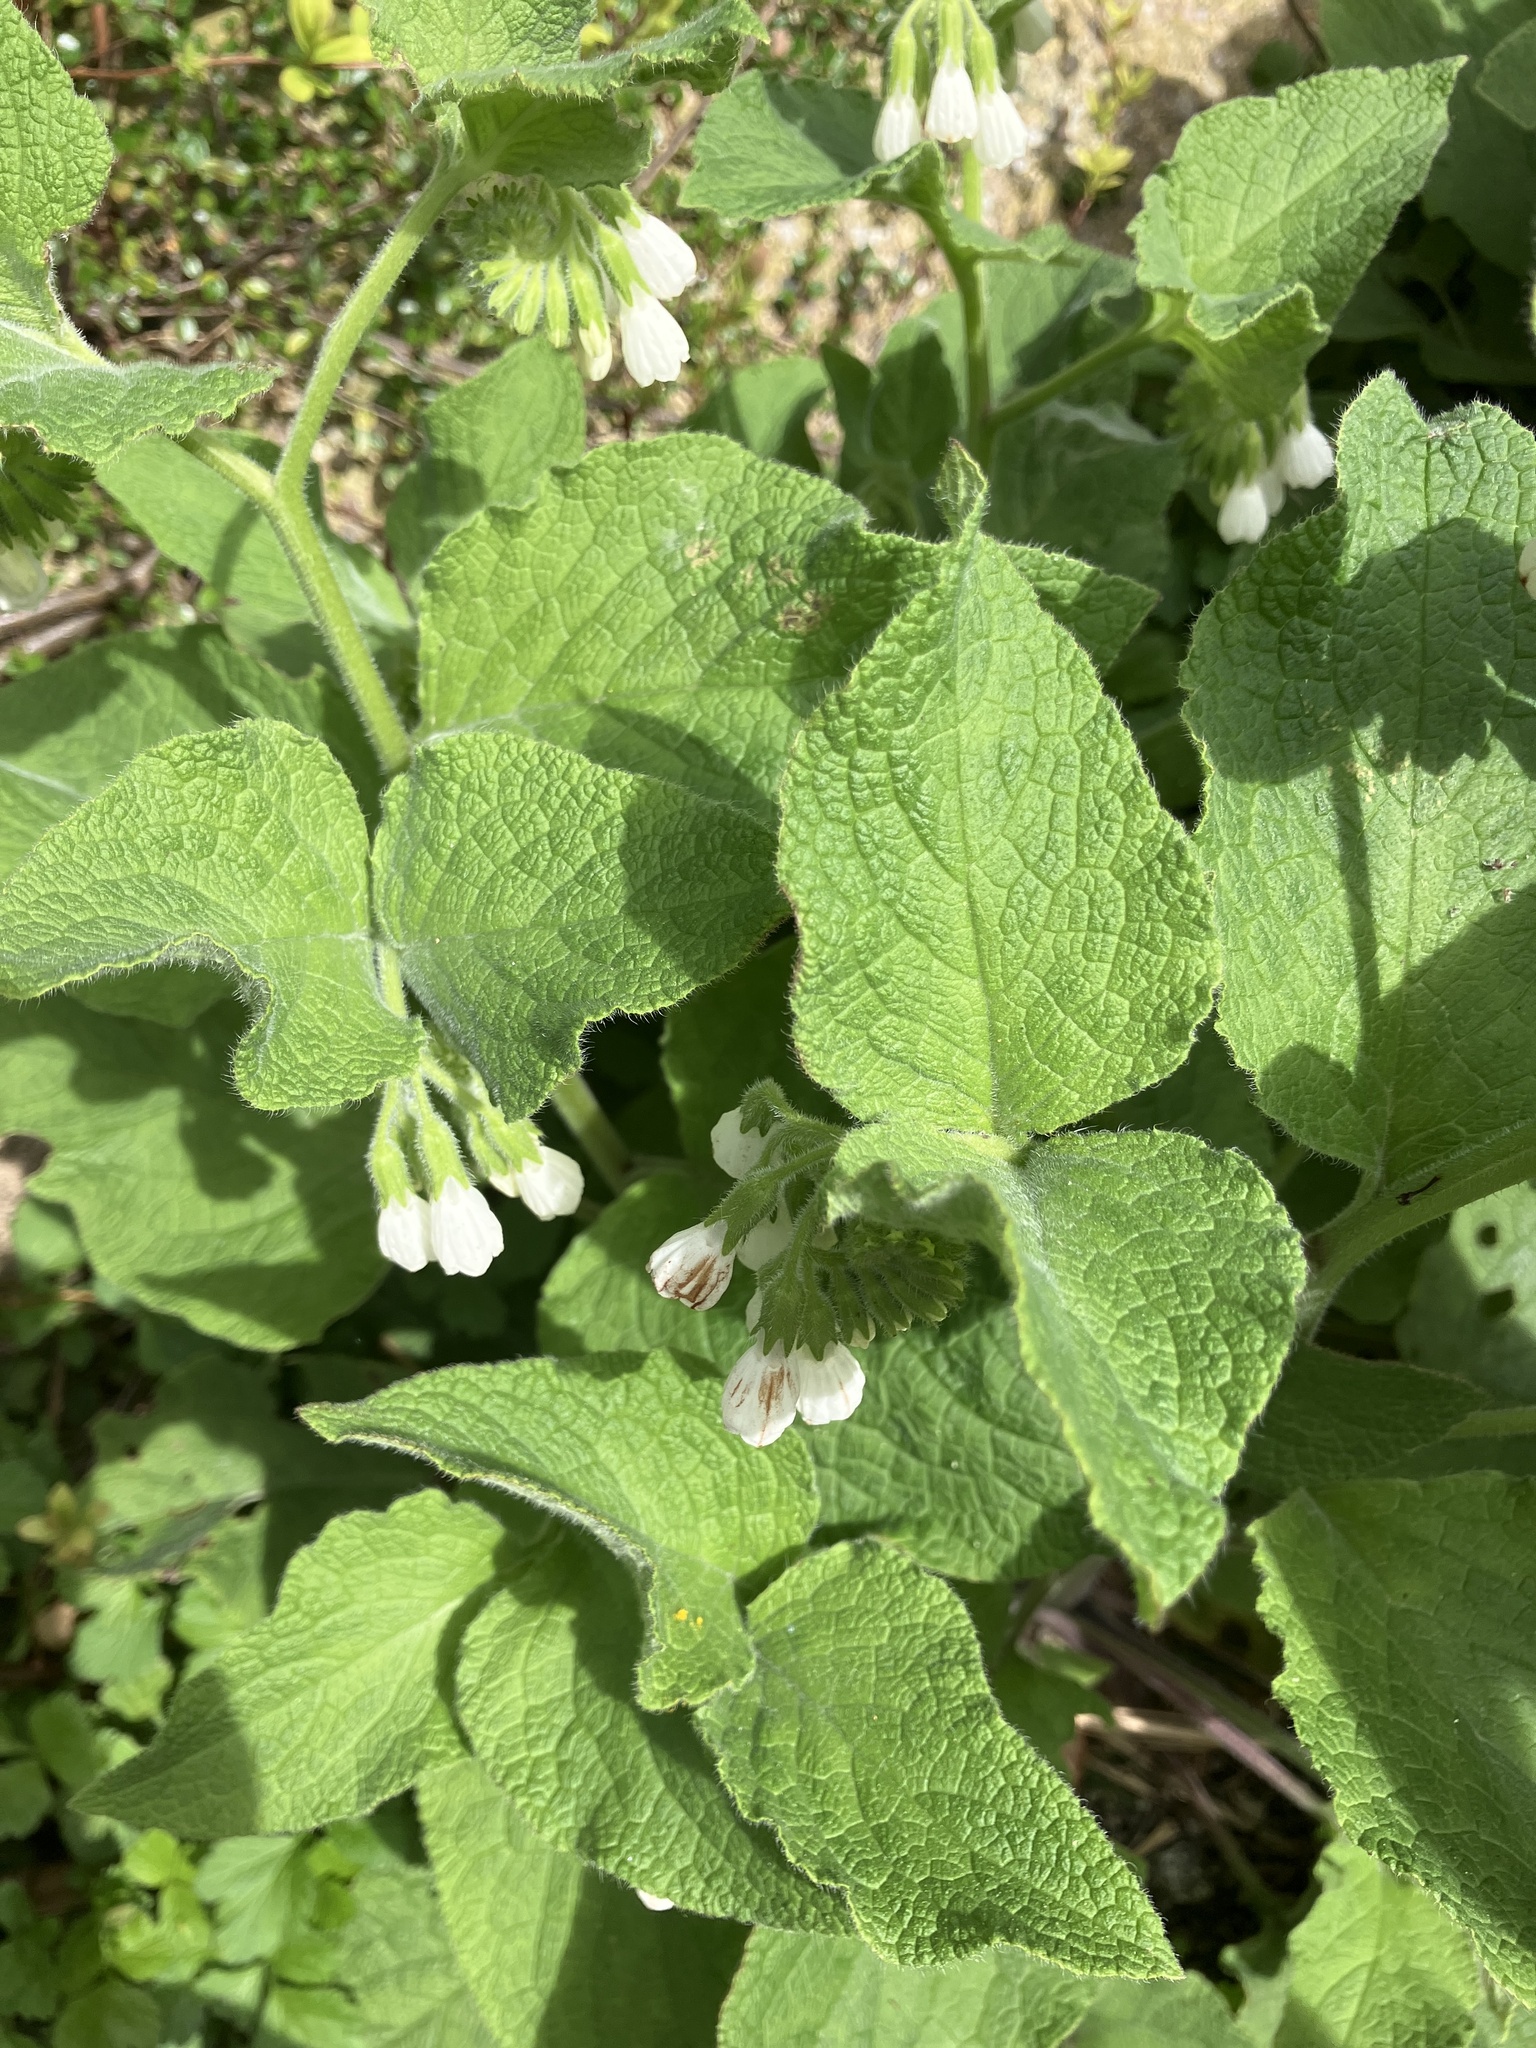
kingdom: Plantae
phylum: Tracheophyta
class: Magnoliopsida
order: Boraginales
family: Boraginaceae
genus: Symphytum
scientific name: Symphytum orientale
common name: White comfrey
